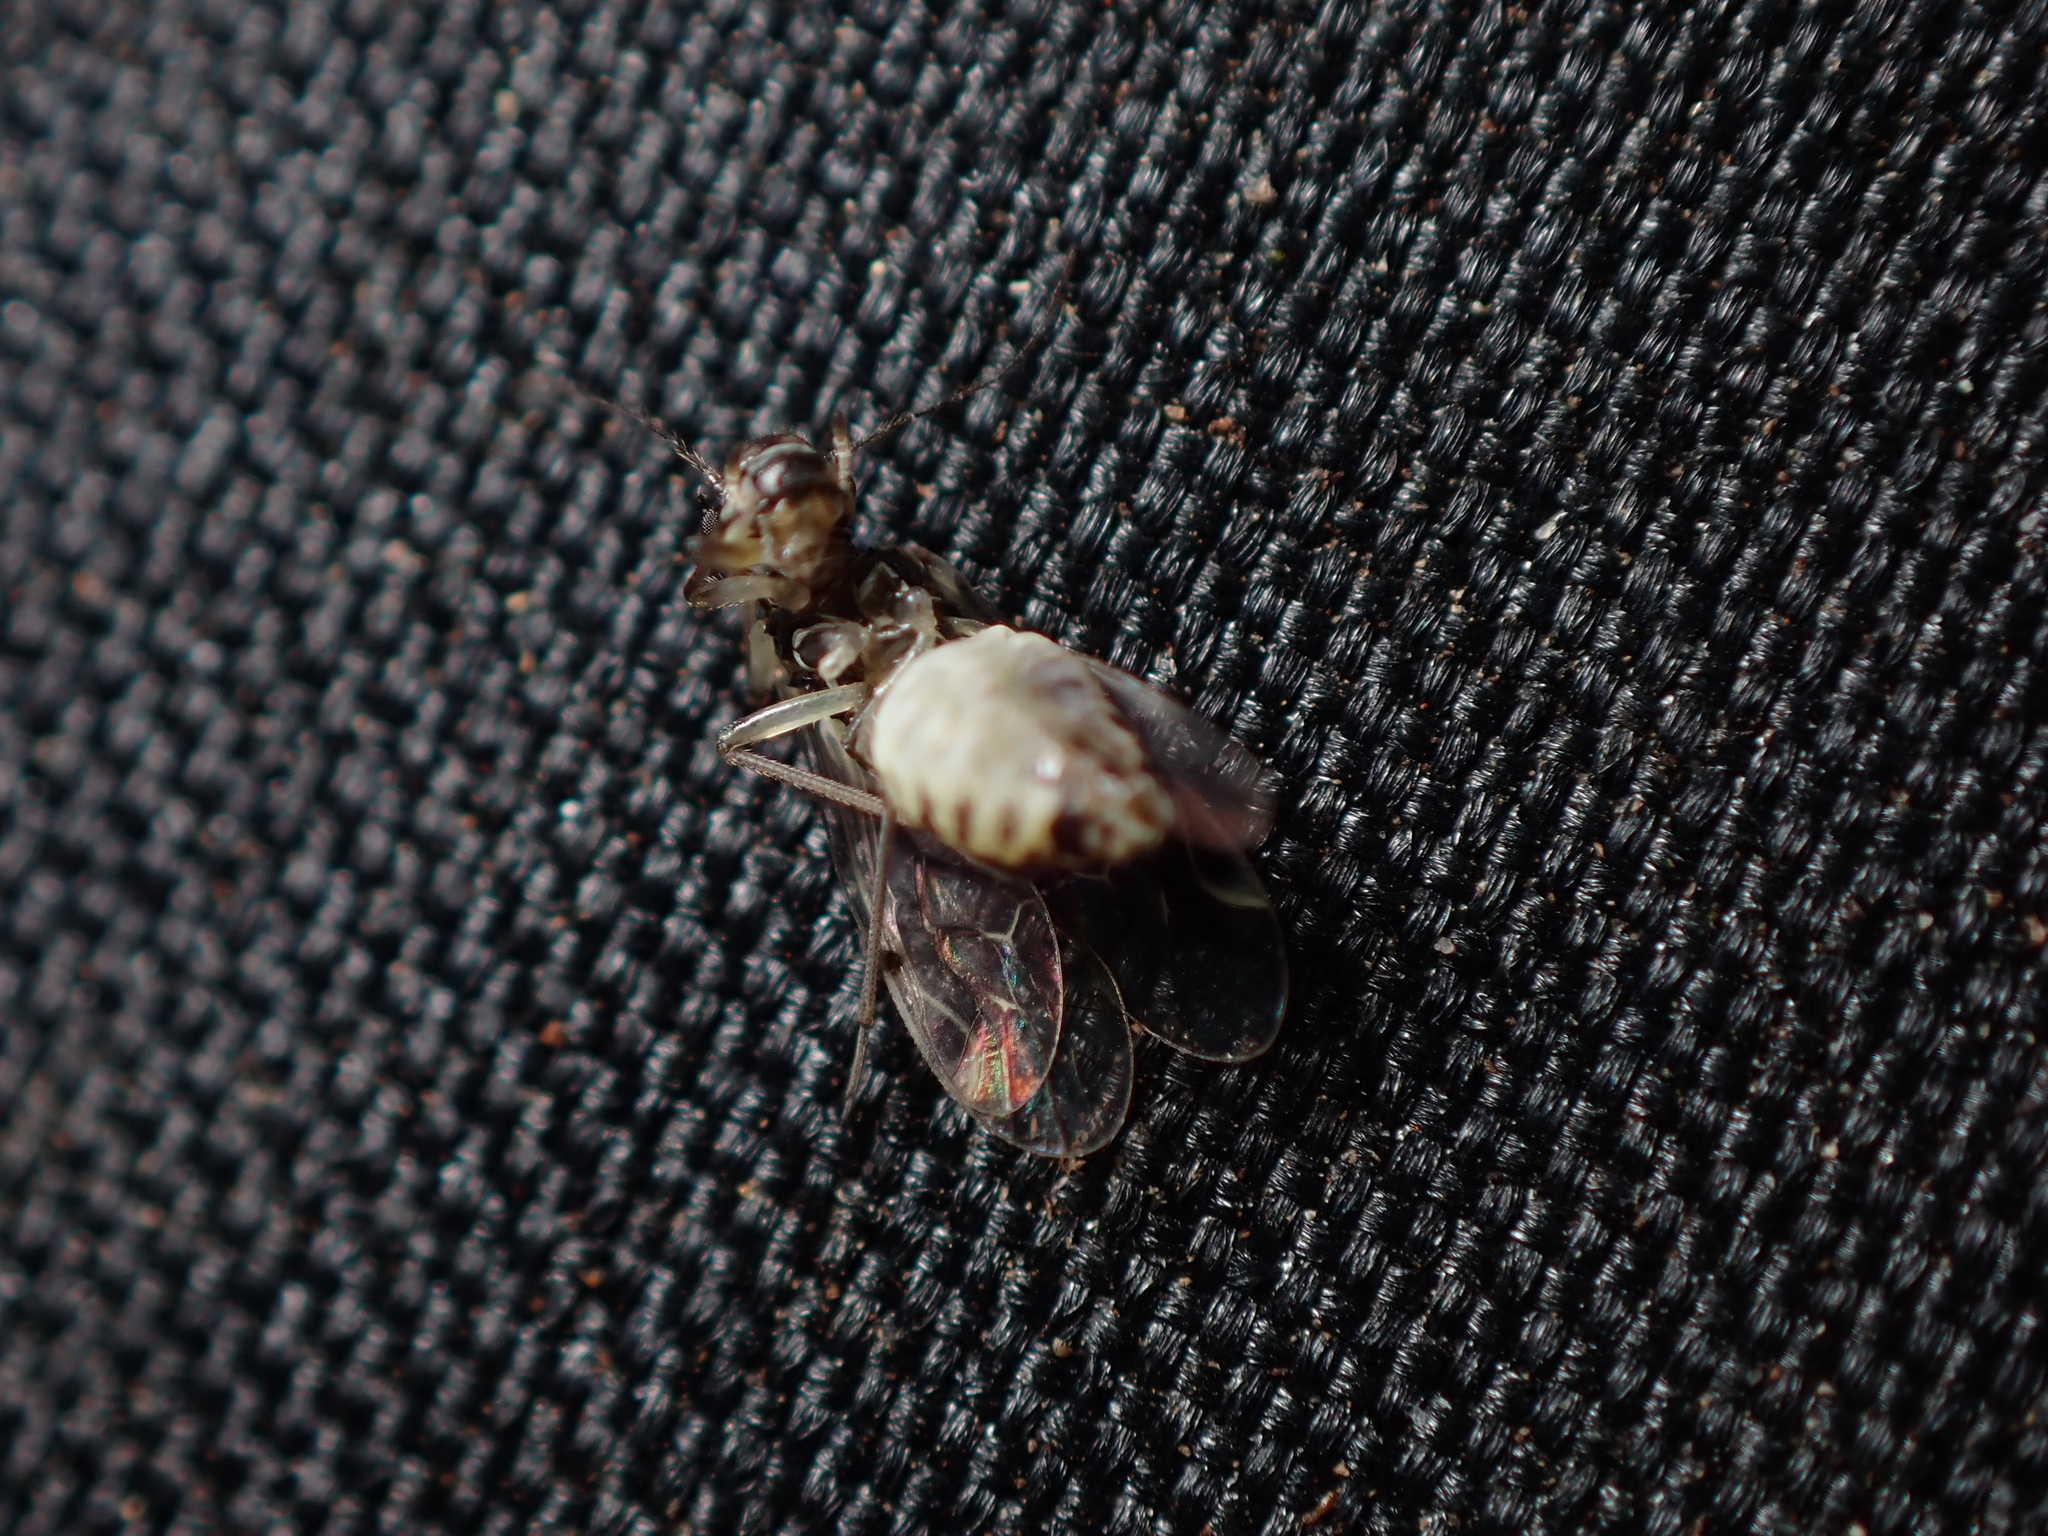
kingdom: Animalia
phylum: Arthropoda
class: Insecta
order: Psocodea
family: Psocidae
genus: Blaste
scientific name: Blaste lignicola
